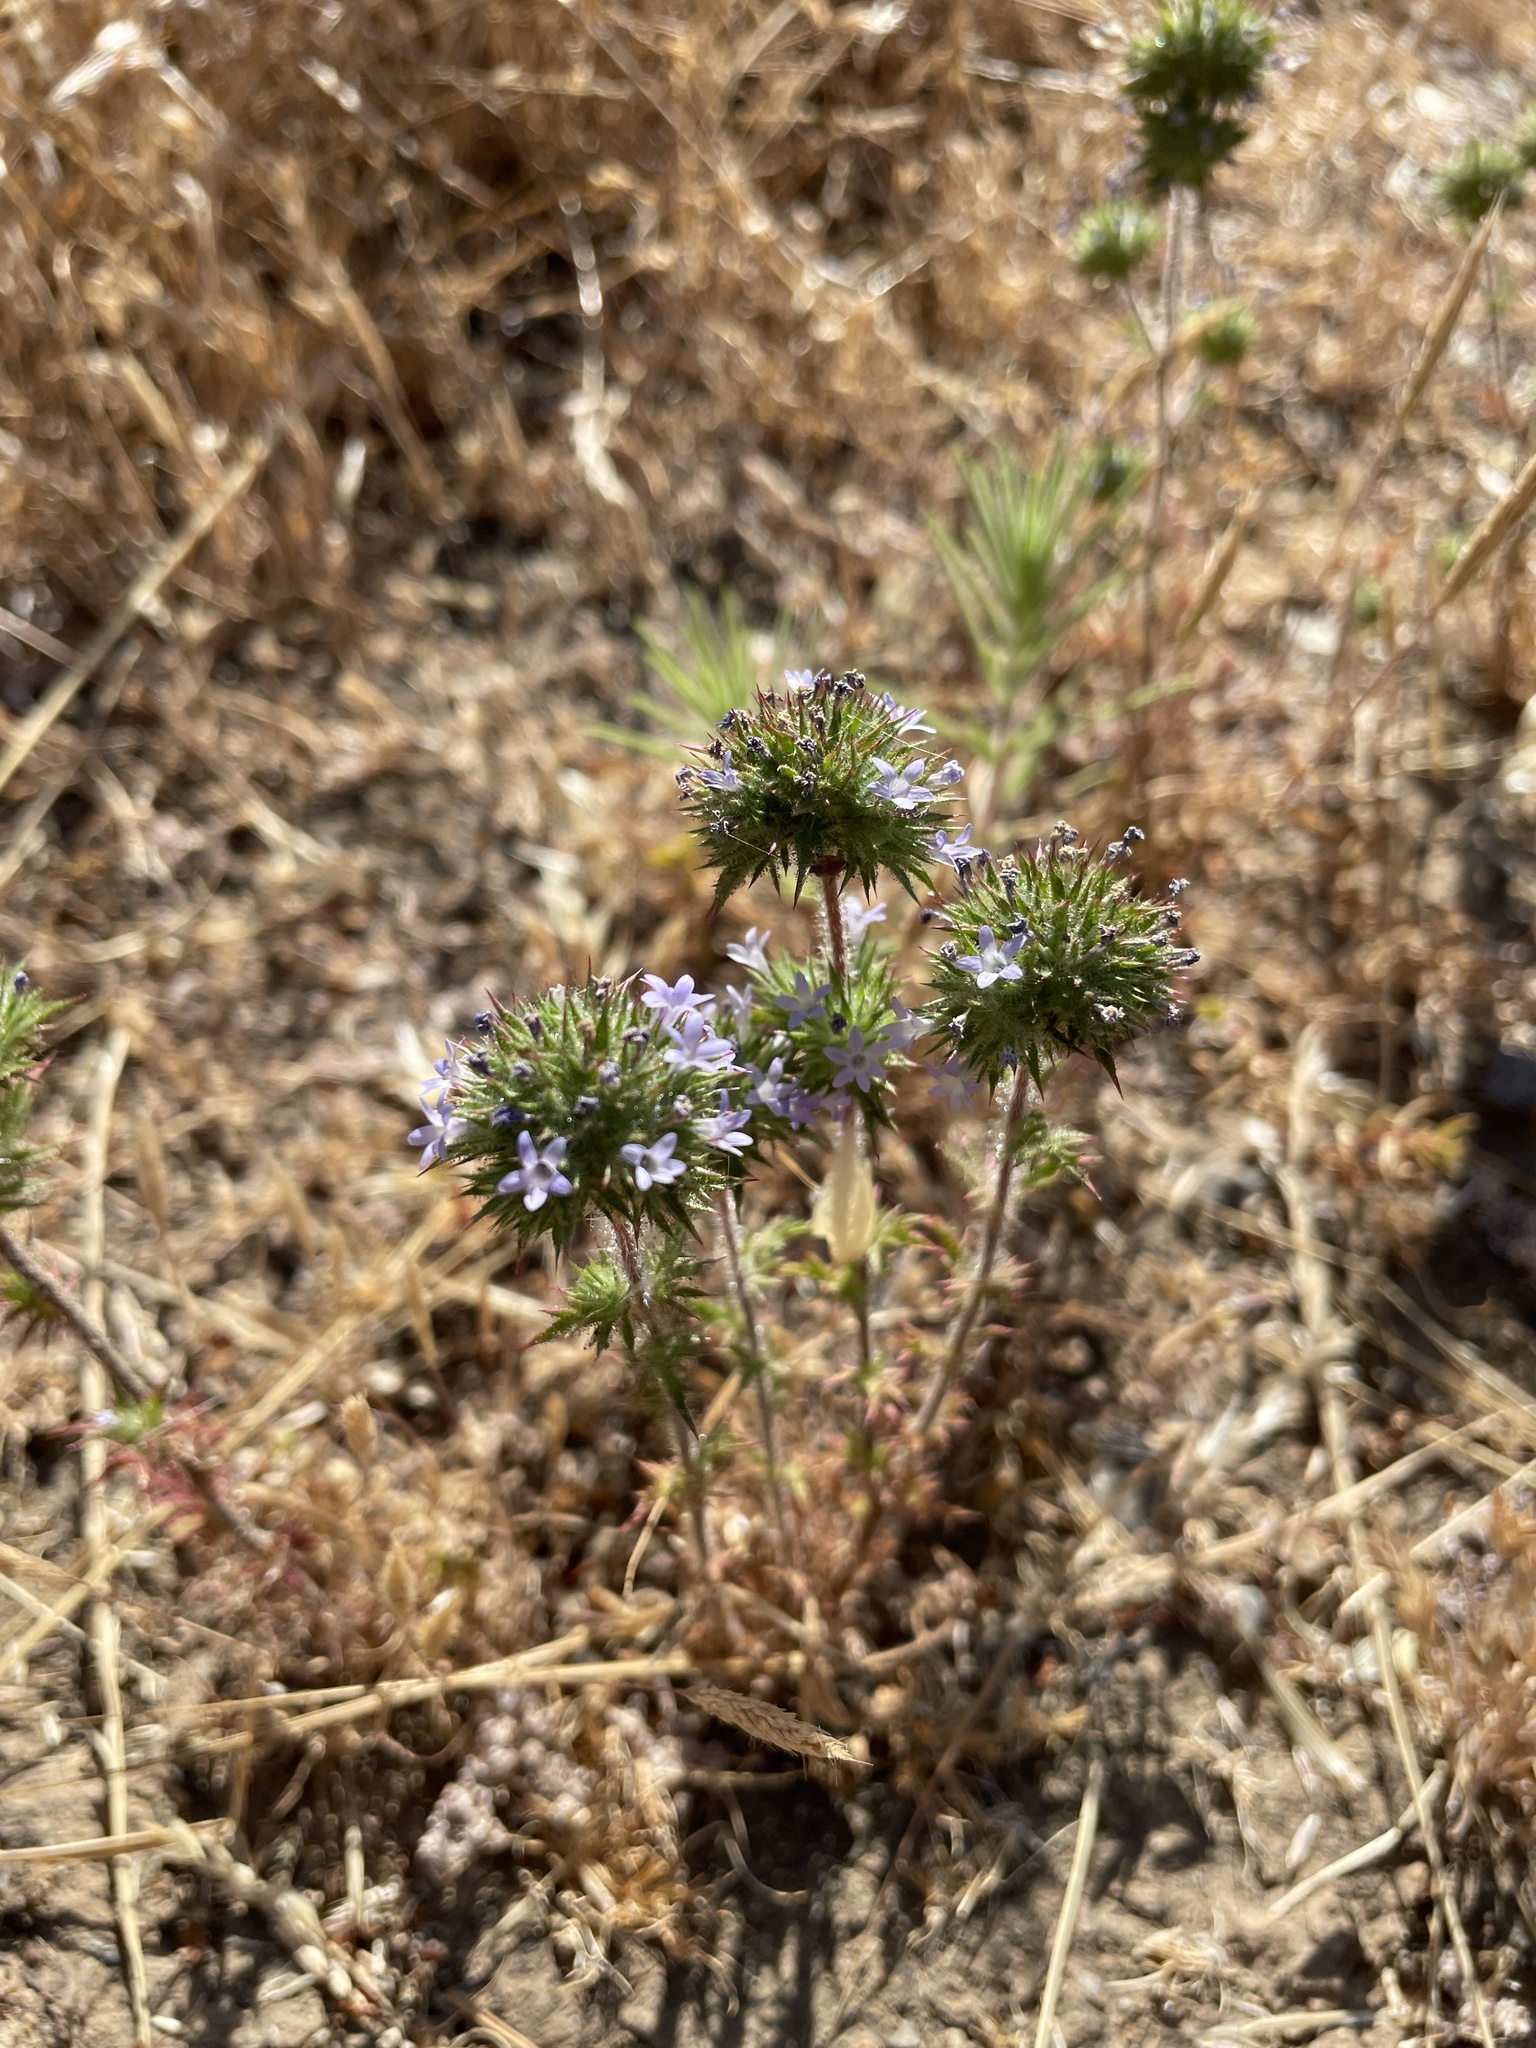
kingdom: Plantae
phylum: Tracheophyta
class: Magnoliopsida
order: Ericales
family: Polemoniaceae
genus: Navarretia
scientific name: Navarretia squarrosa
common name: Skunkweed
